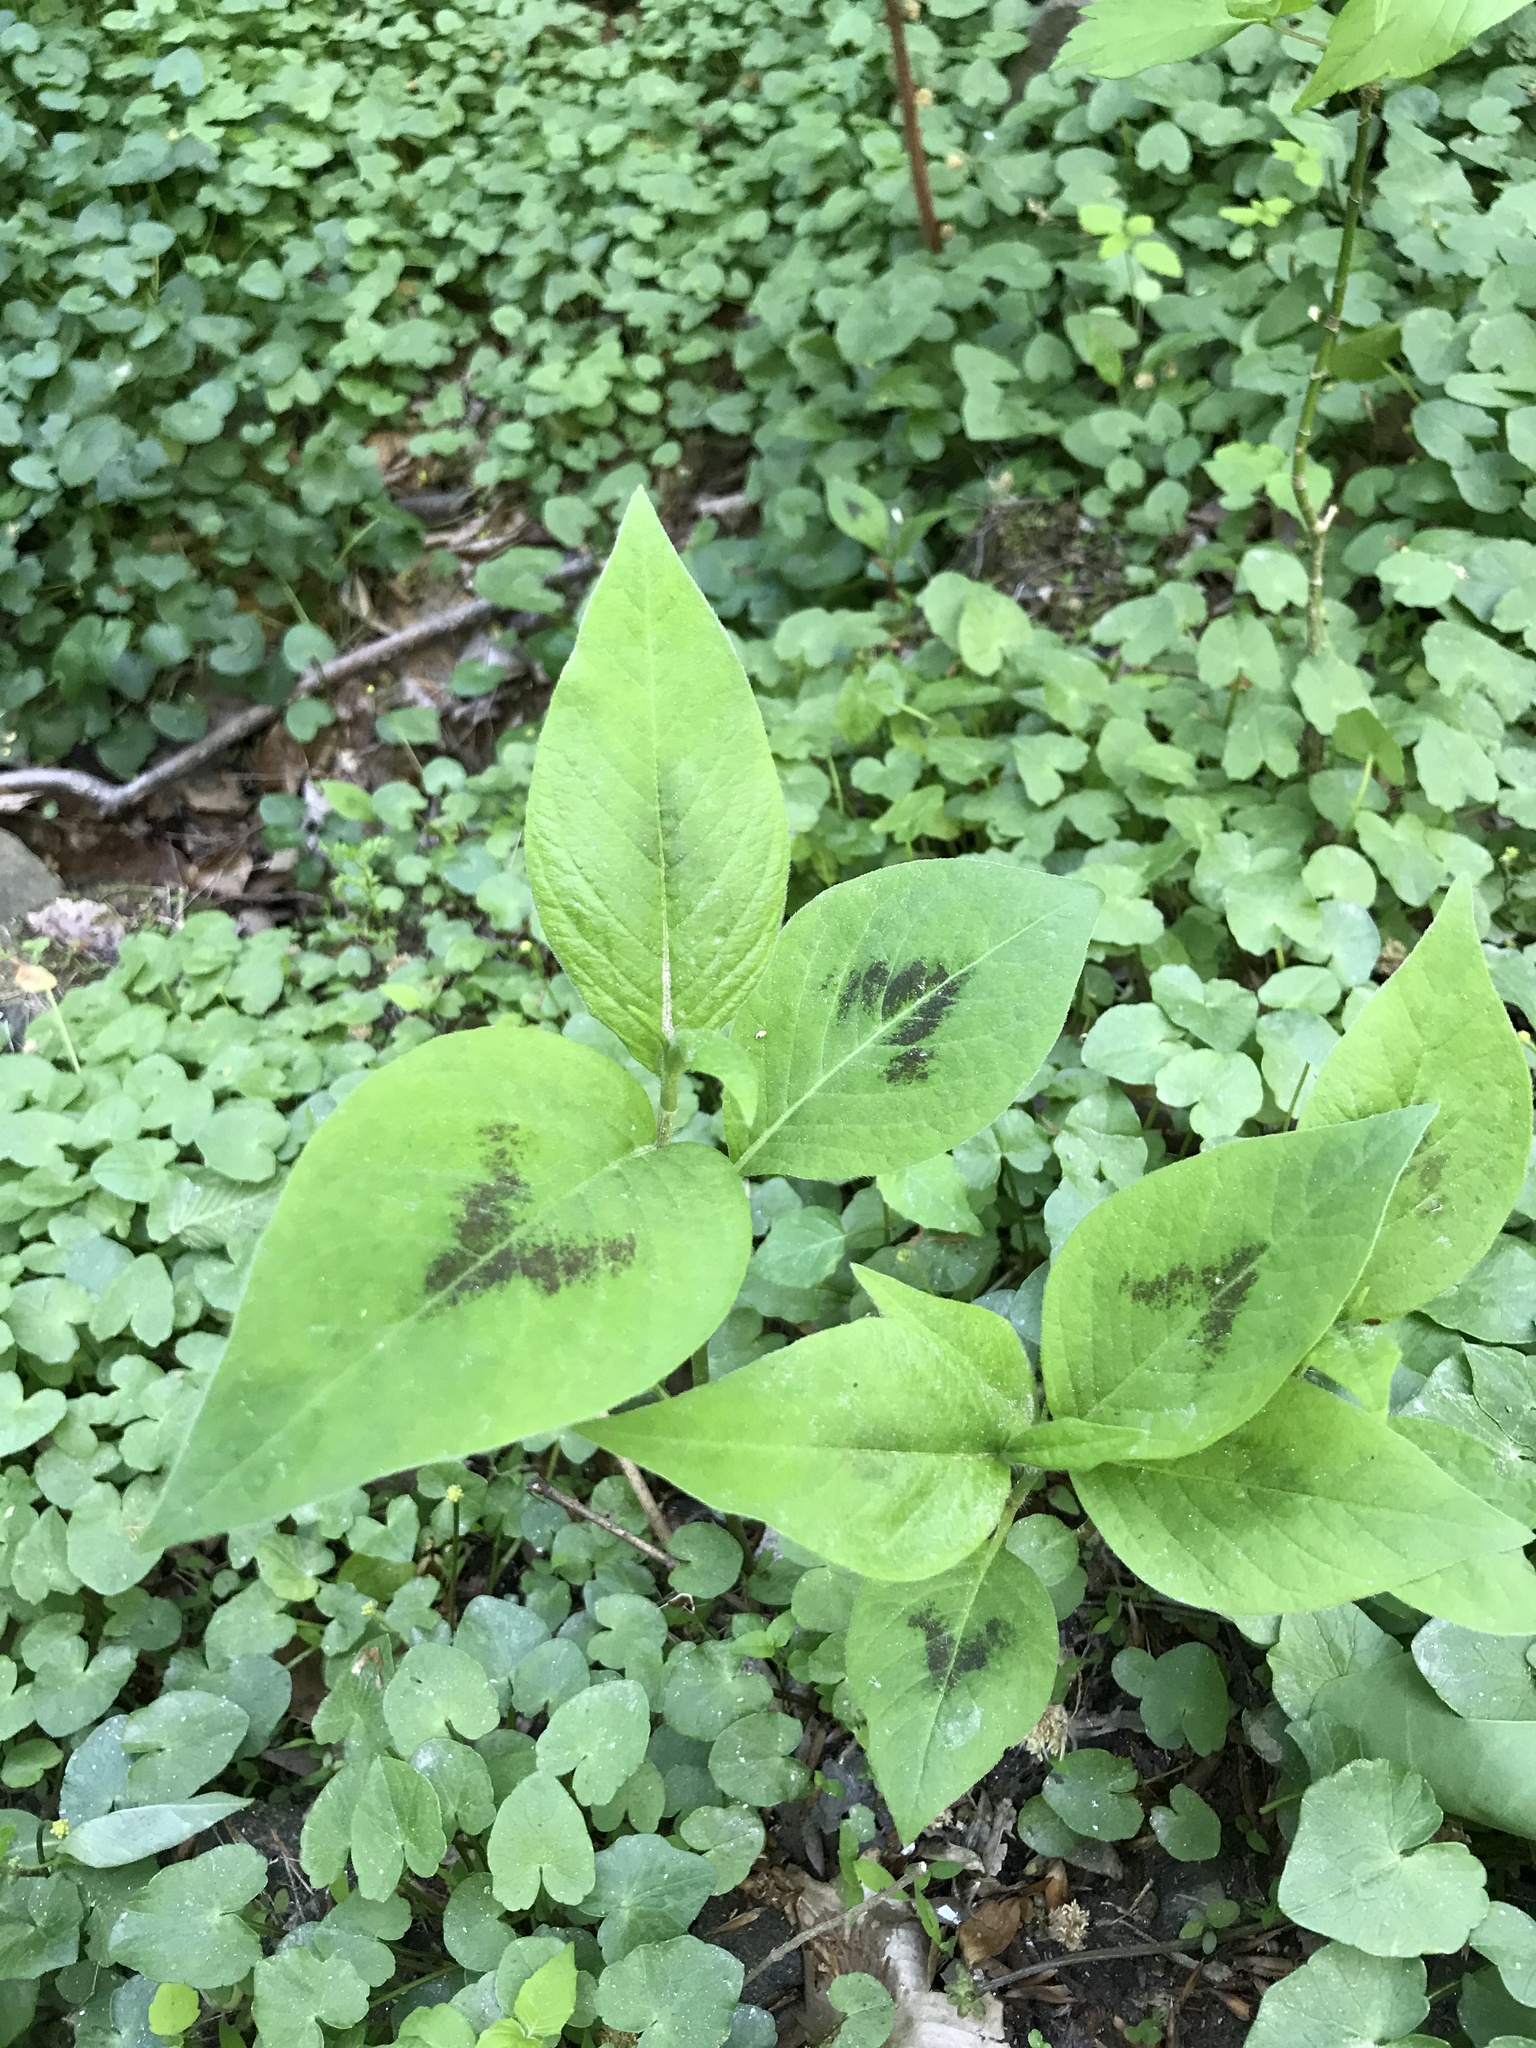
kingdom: Plantae
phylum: Tracheophyta
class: Magnoliopsida
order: Caryophyllales
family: Polygonaceae
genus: Persicaria
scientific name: Persicaria virginiana
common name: Jumpseed
